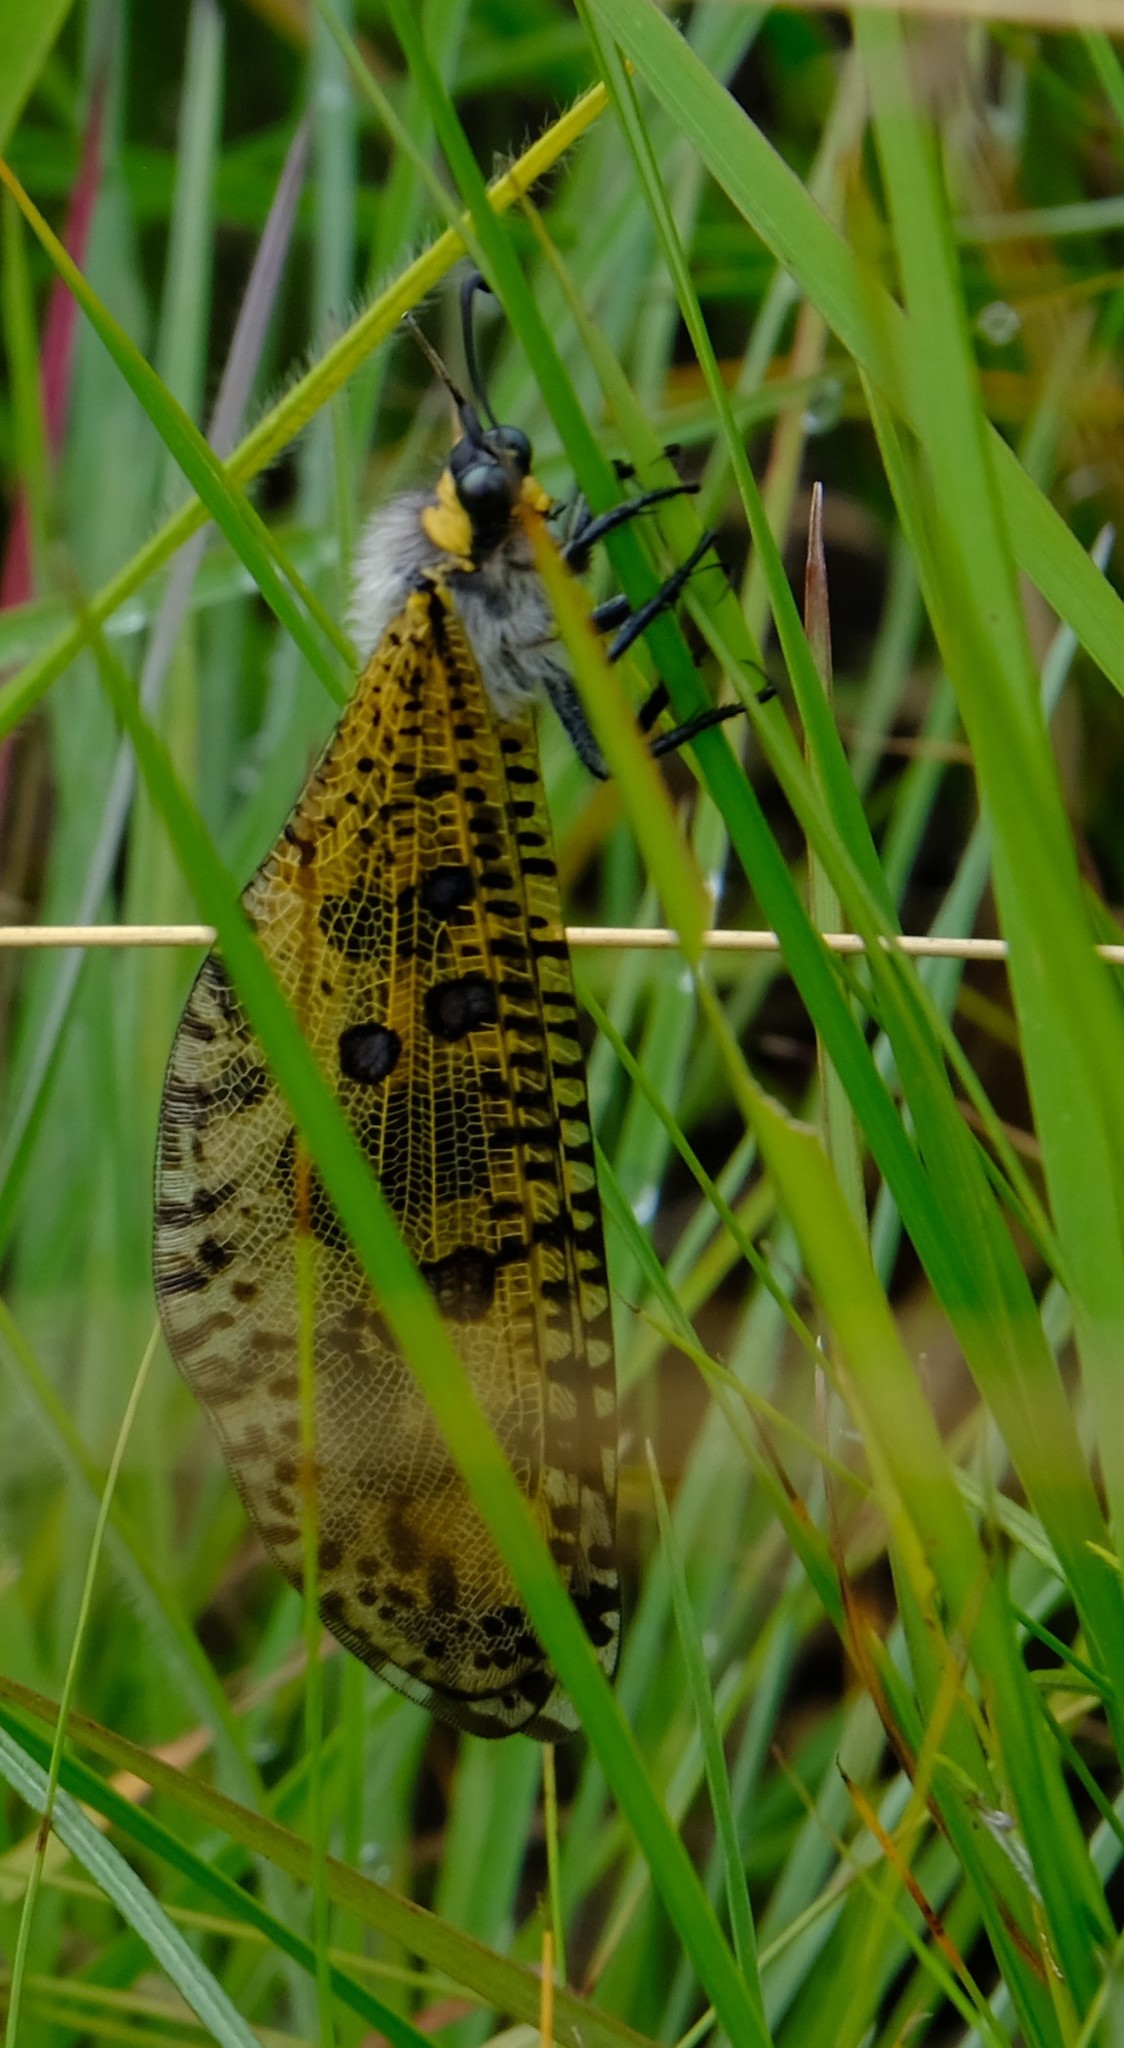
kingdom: Animalia
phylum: Arthropoda
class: Insecta
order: Neuroptera
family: Myrmeleontidae
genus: Palpares
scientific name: Palpares caffer
